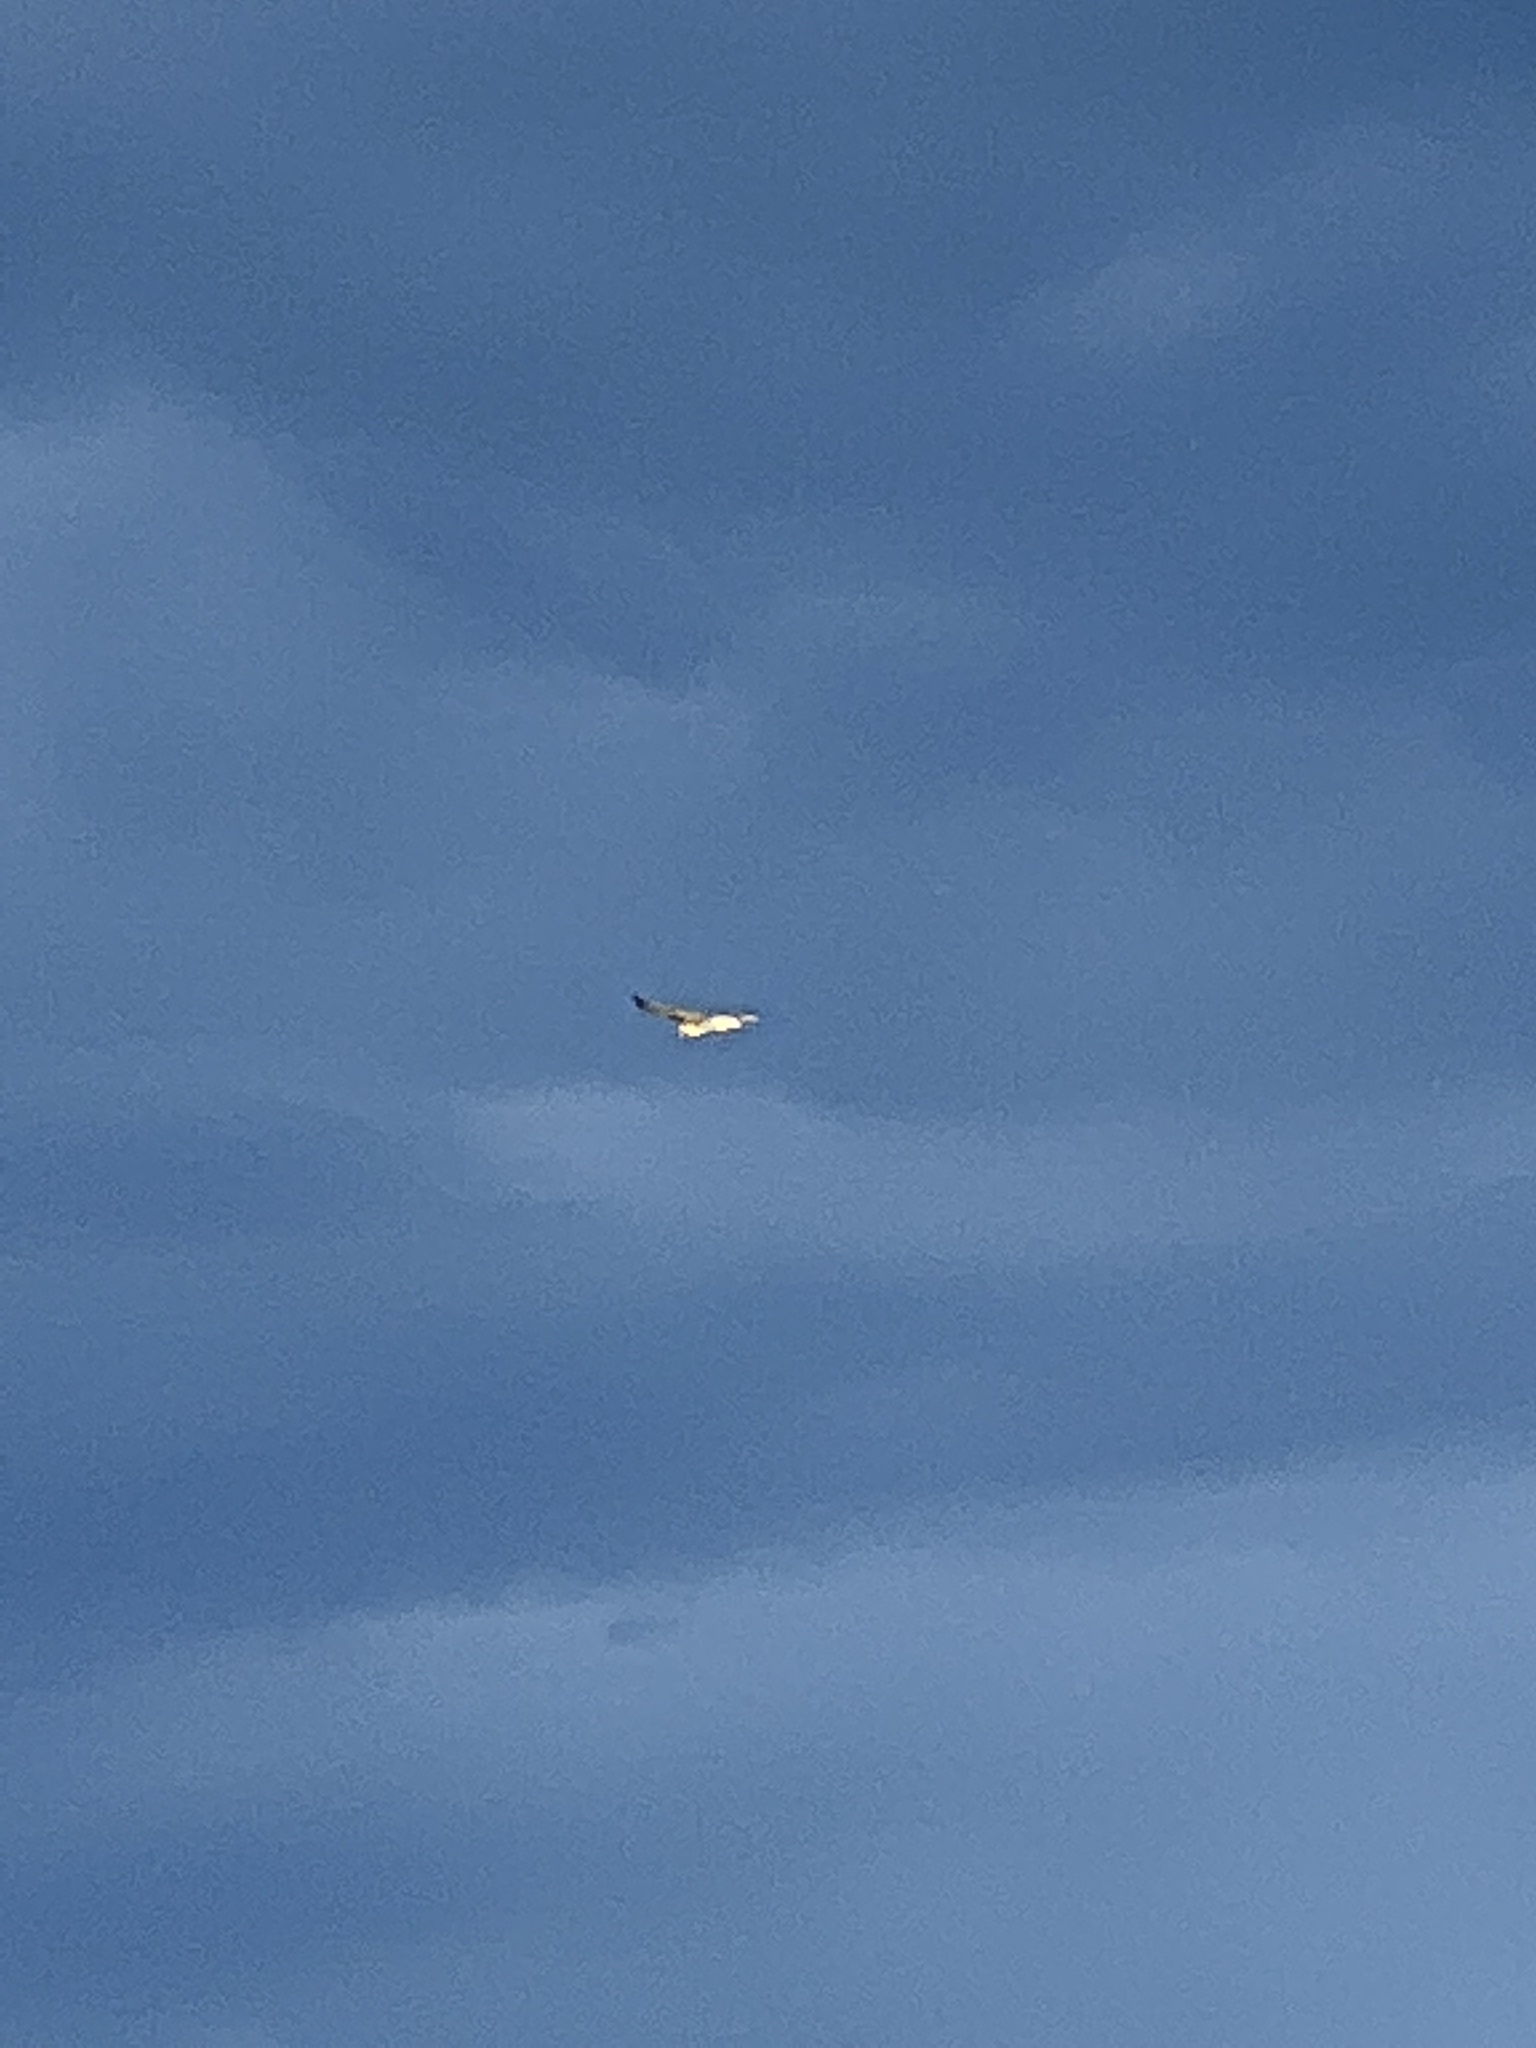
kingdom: Animalia
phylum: Chordata
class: Aves
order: Accipitriformes
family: Accipitridae
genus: Buteo
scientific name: Buteo jamaicensis
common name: Red-tailed hawk
